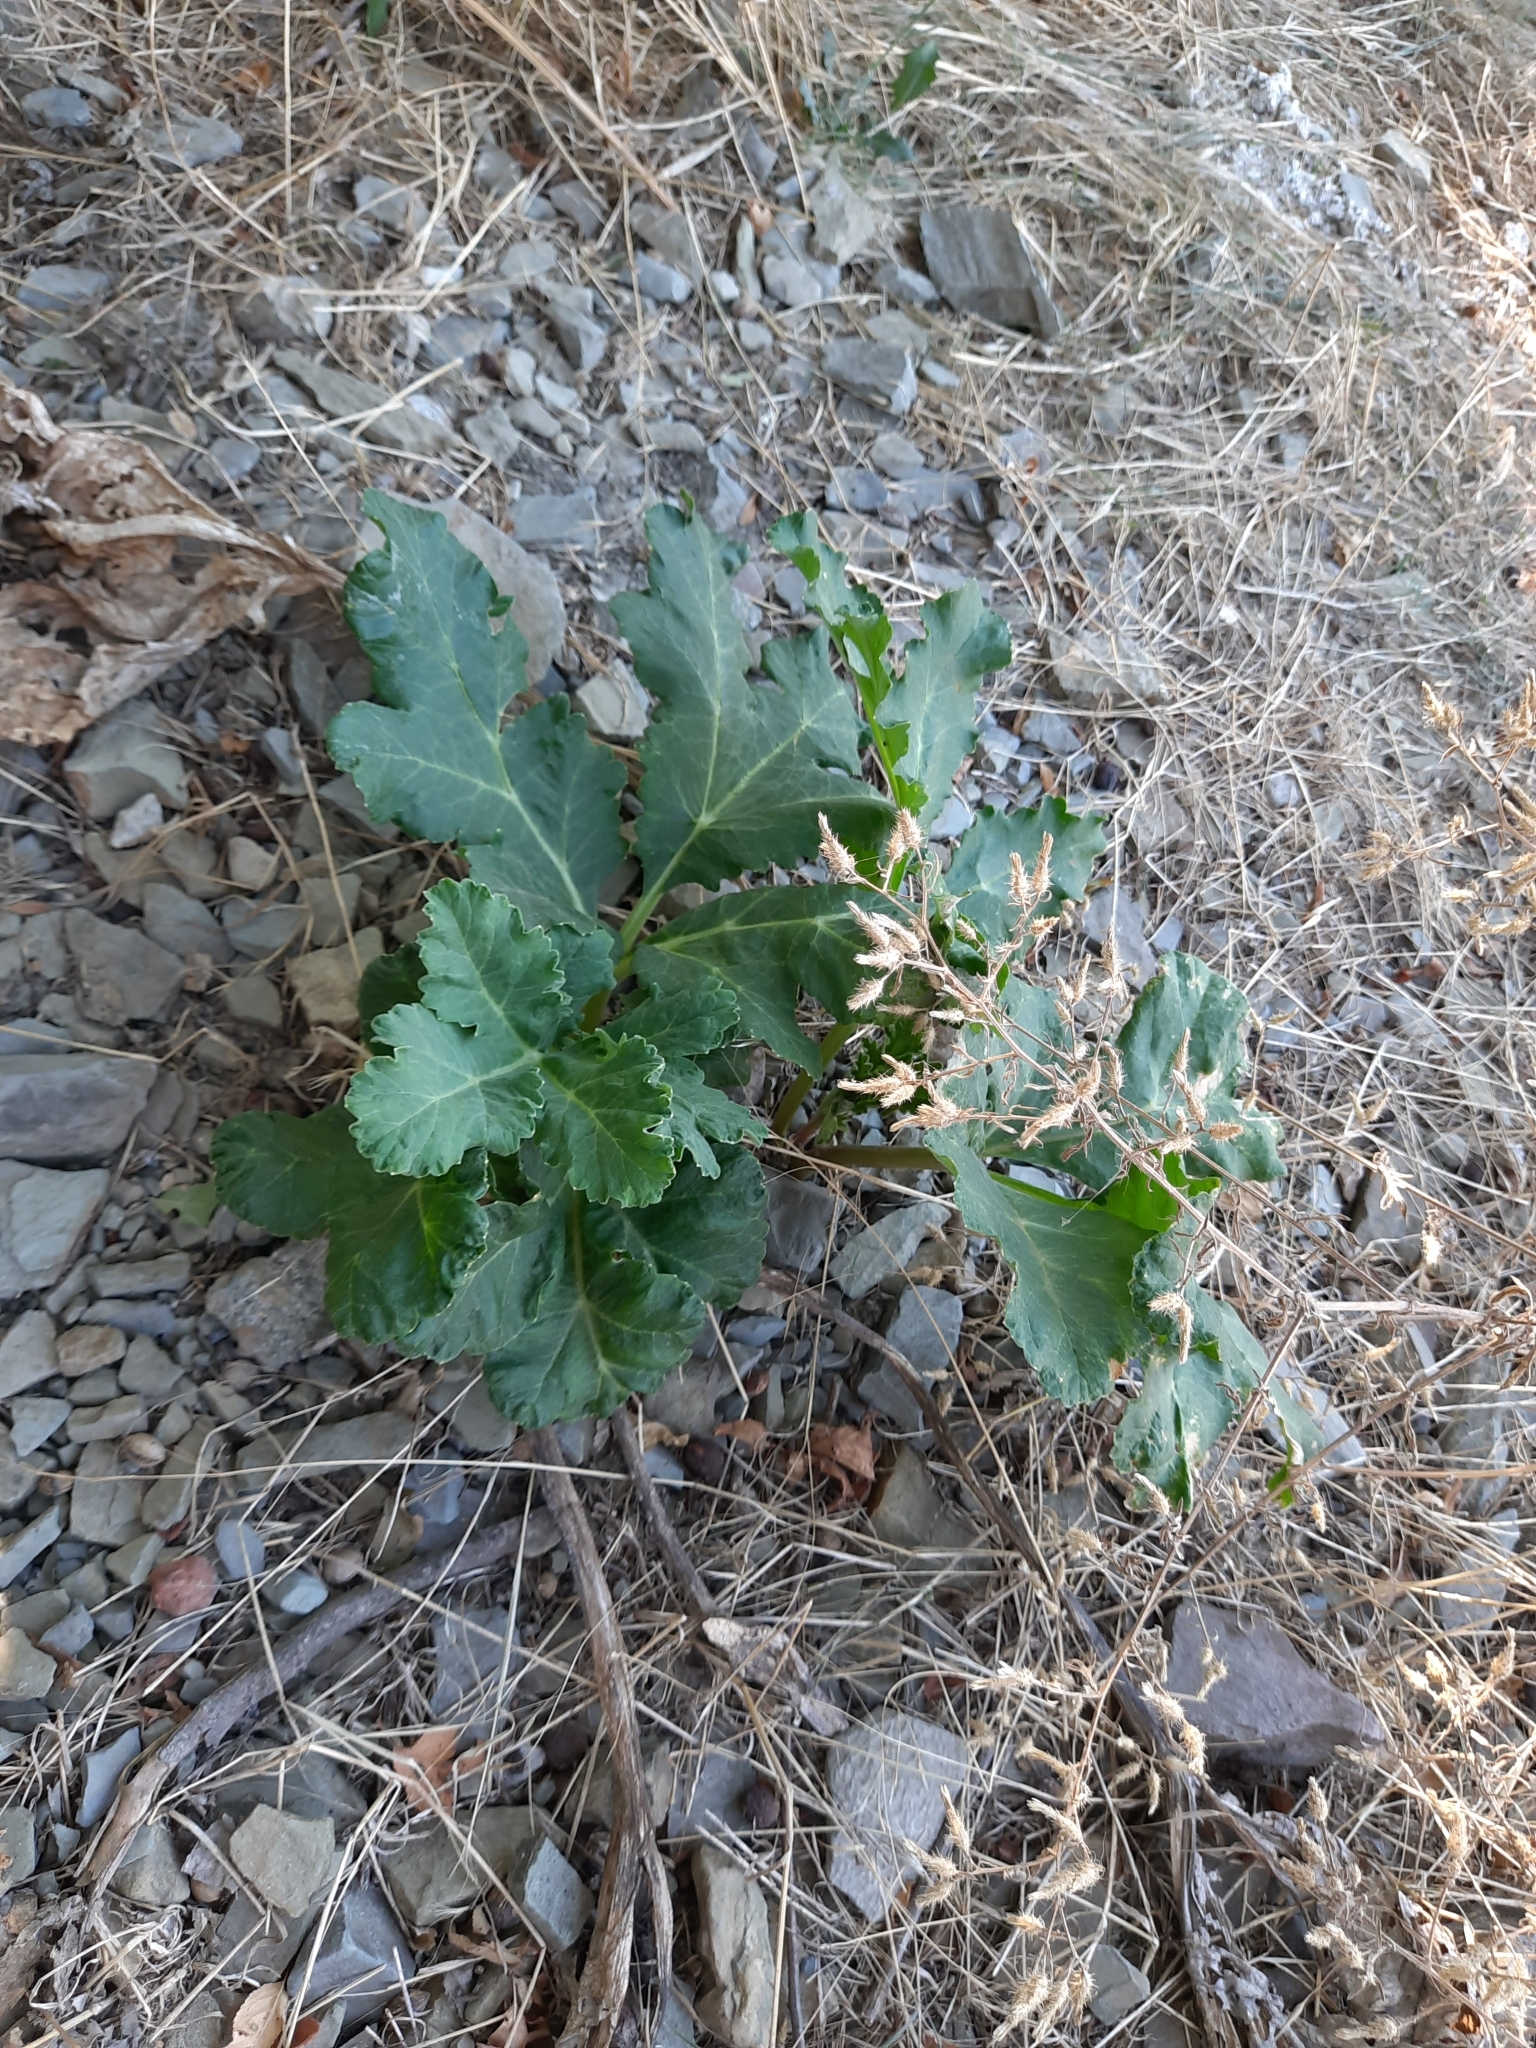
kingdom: Plantae
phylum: Tracheophyta
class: Magnoliopsida
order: Apiales
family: Apiaceae
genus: Heracleum
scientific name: Heracleum stevenii
